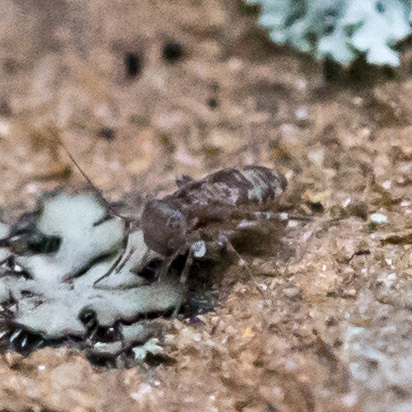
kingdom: Animalia
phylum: Arthropoda
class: Insecta
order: Psocodea
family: Amphientomidae
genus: Stimulopalpus
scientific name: Stimulopalpus japonicus
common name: Tropical bark louse
